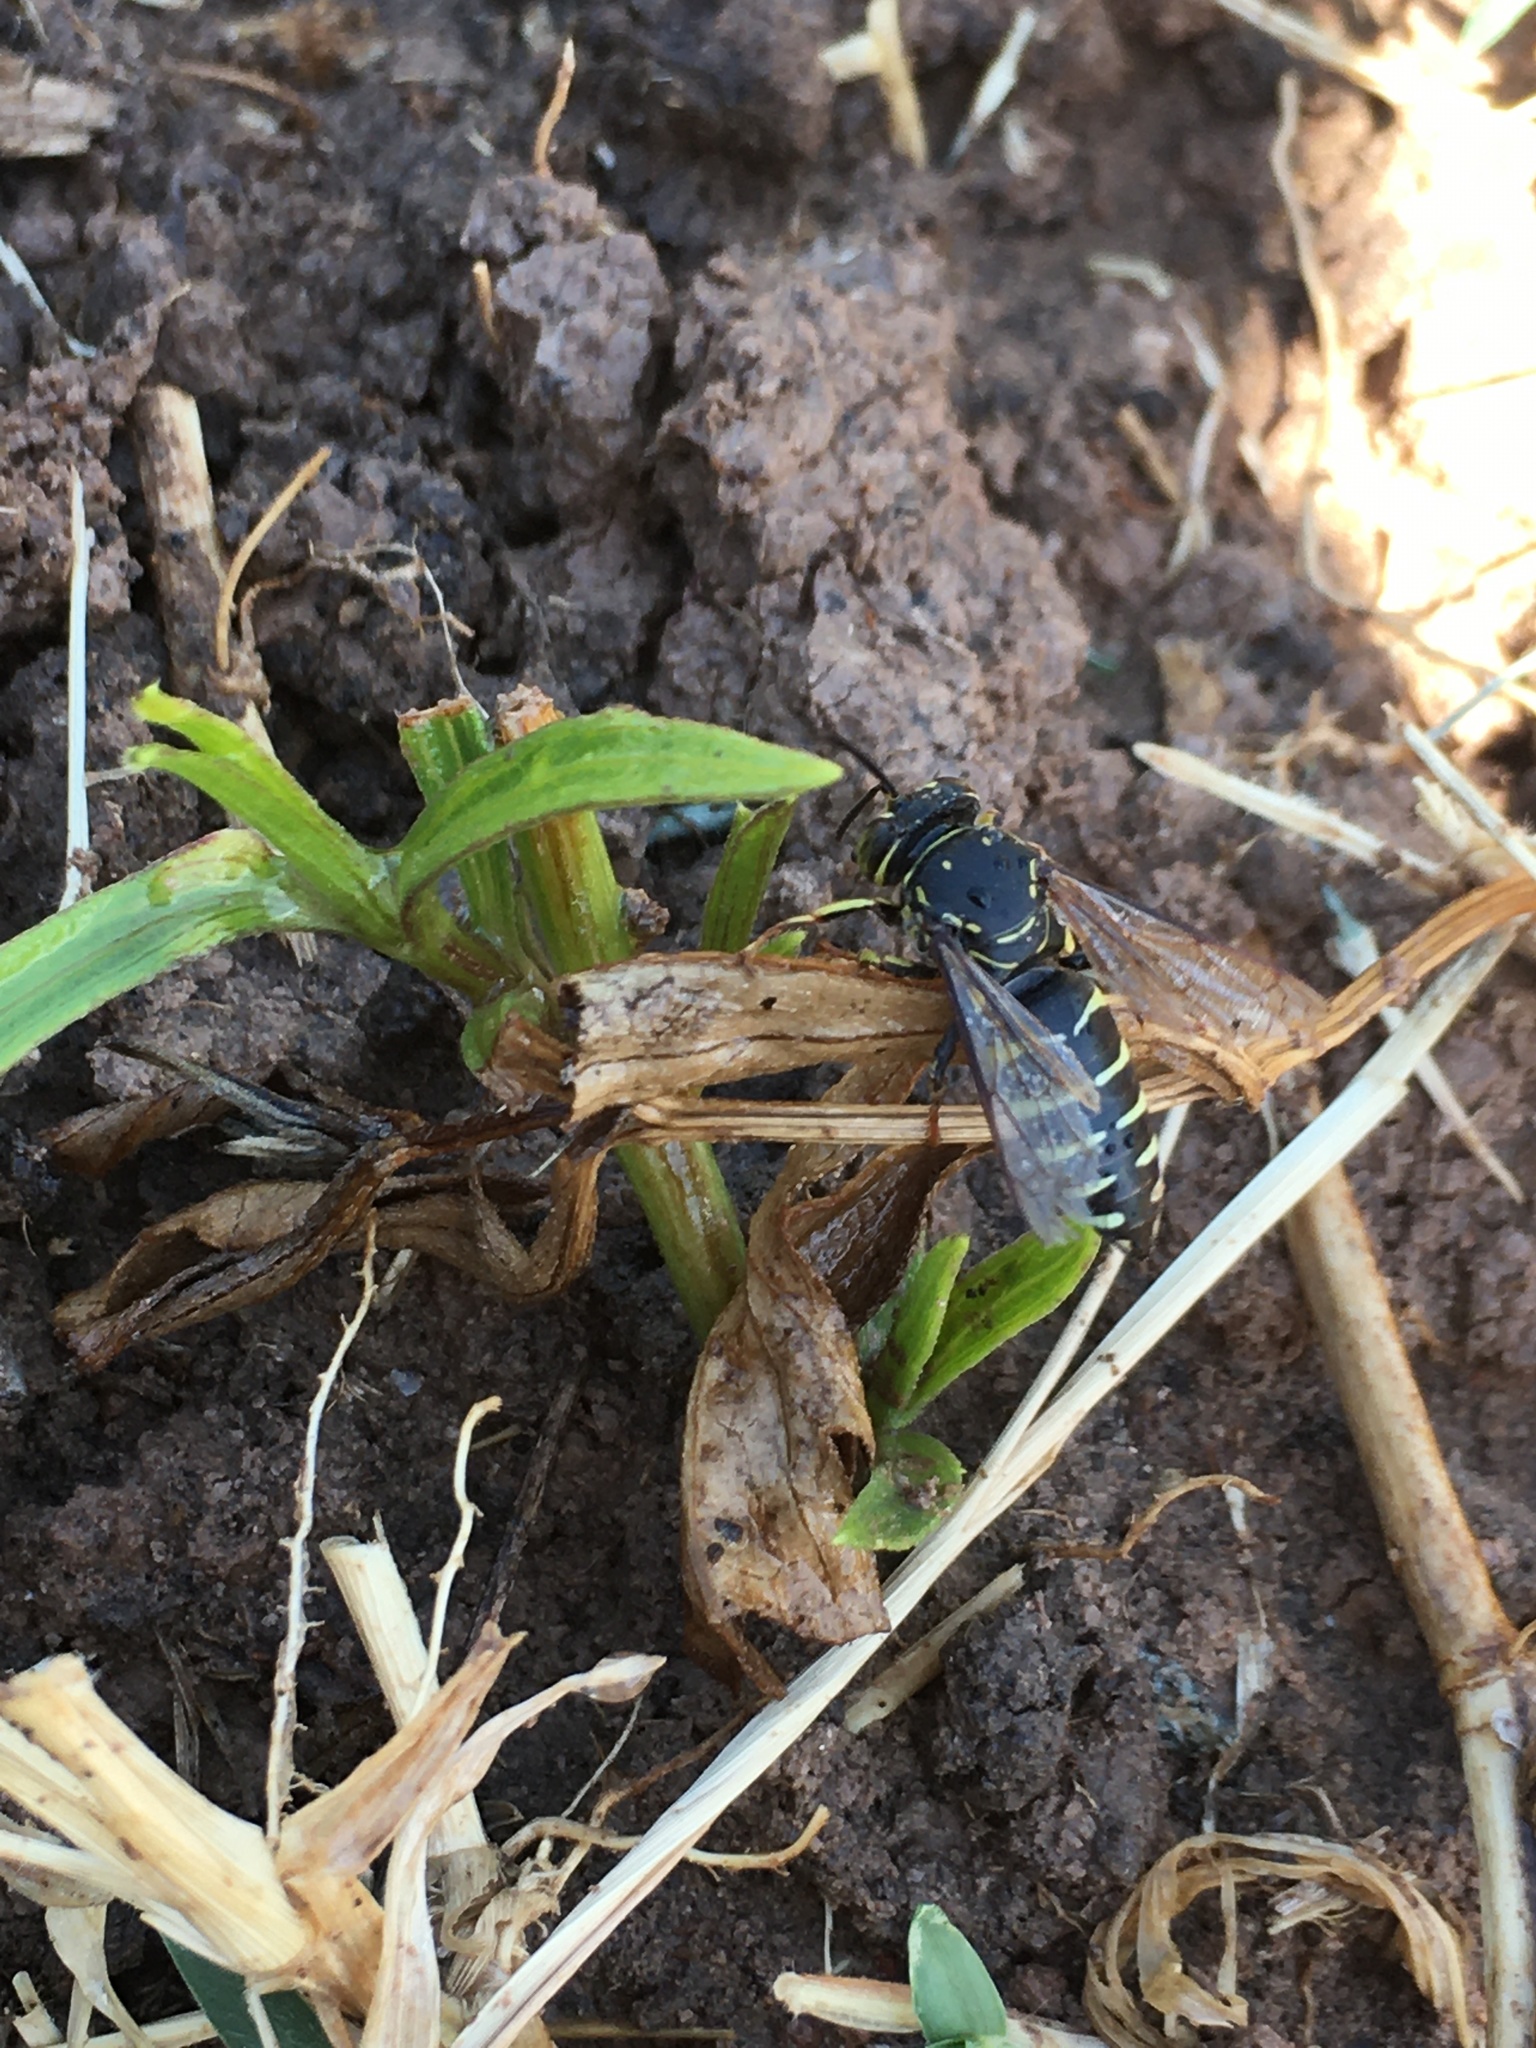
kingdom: Animalia
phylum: Arthropoda
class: Insecta
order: Hymenoptera
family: Crabronidae
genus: Bicyrtes
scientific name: Bicyrtes discisus
